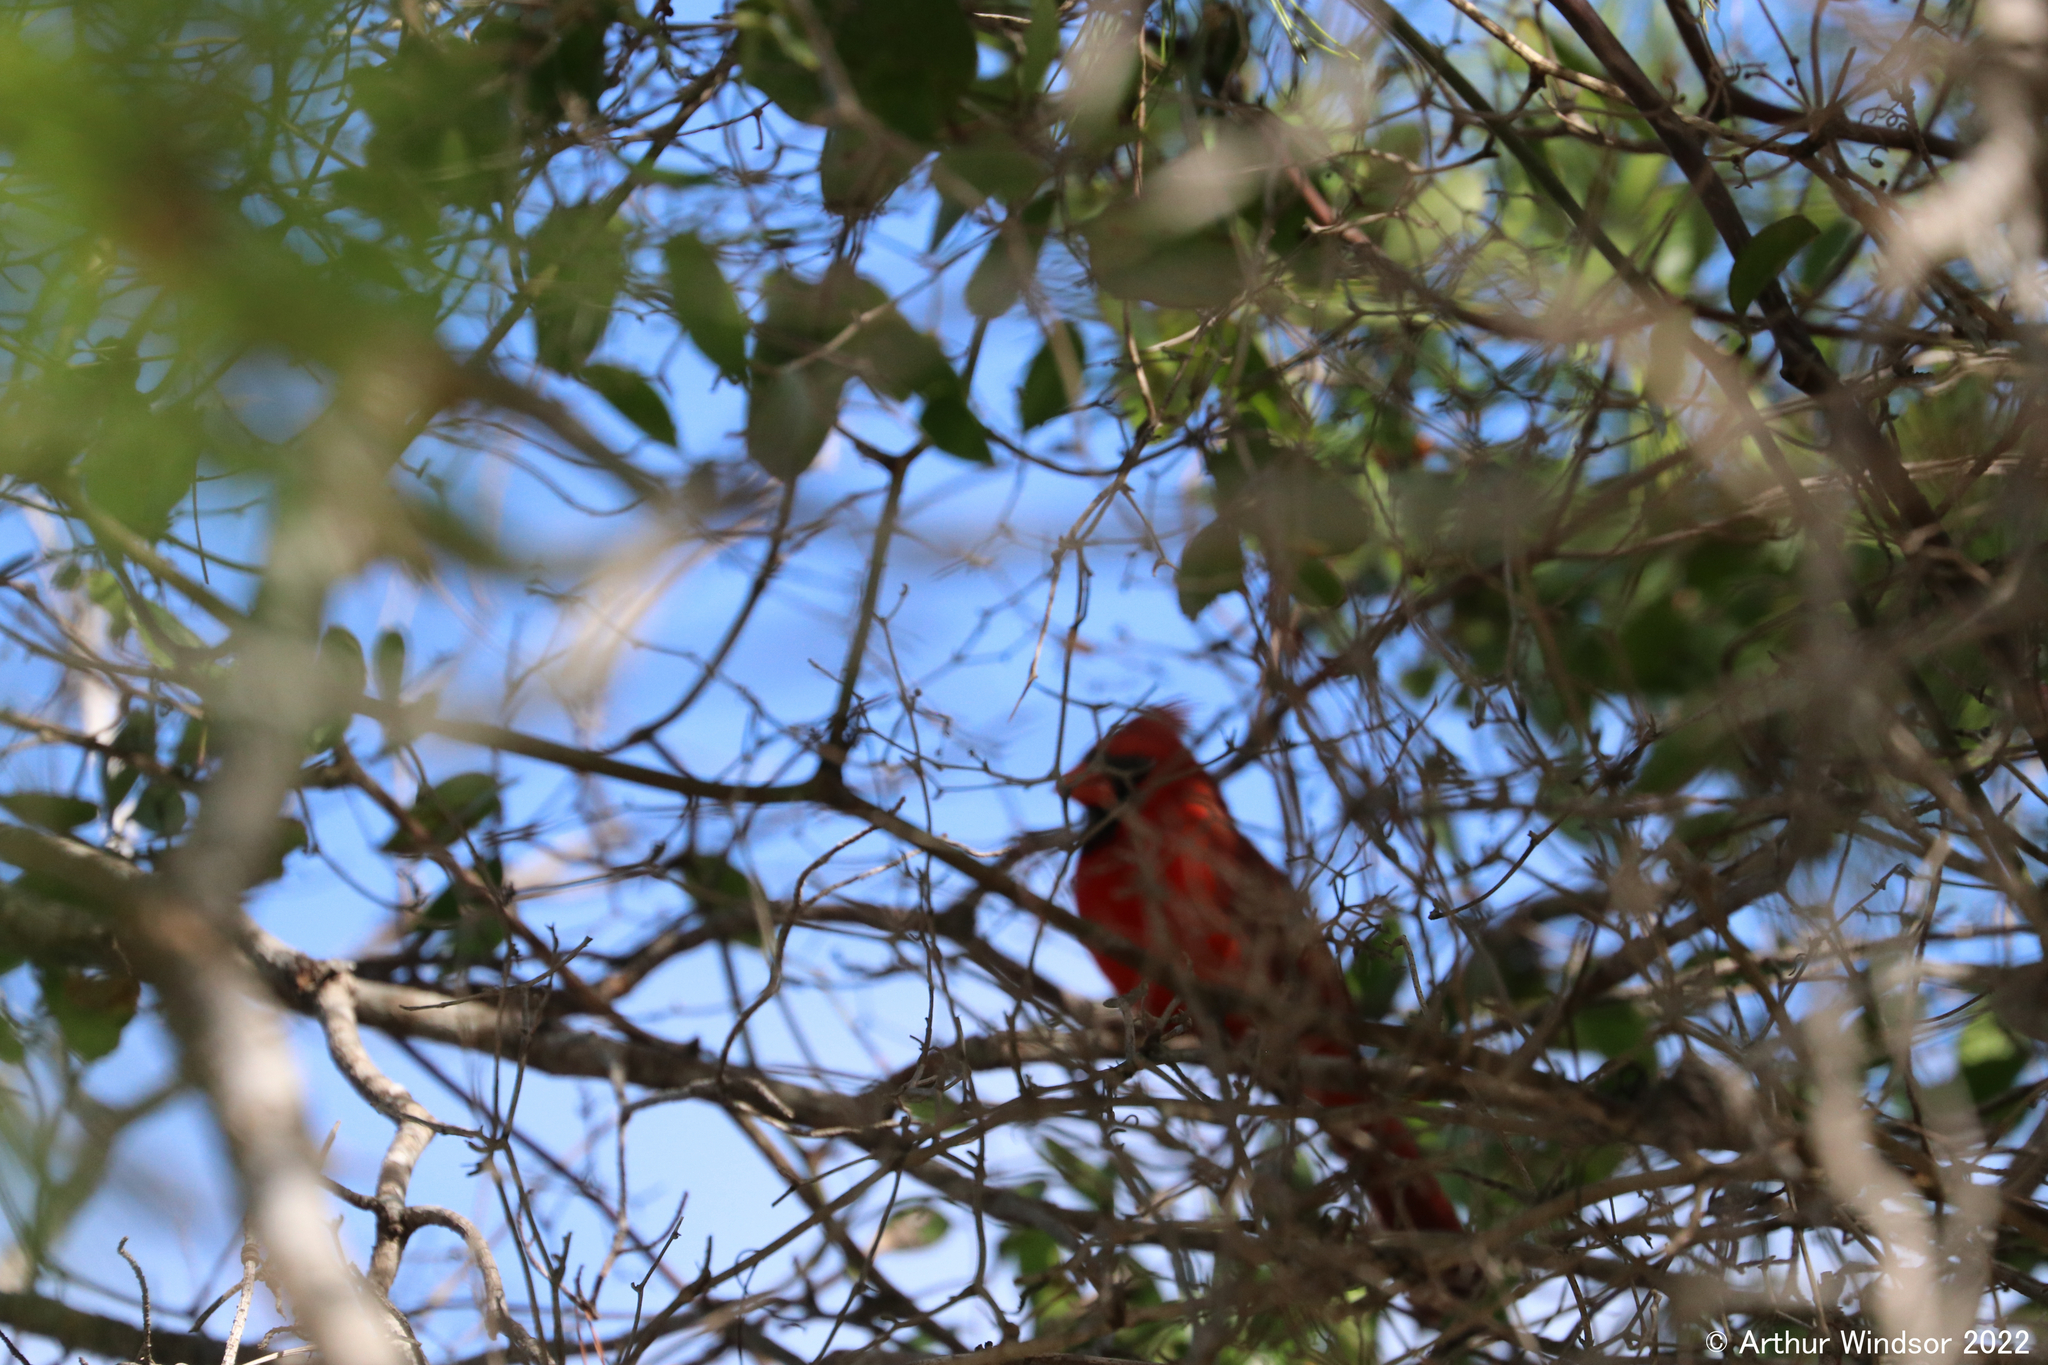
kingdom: Animalia
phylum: Chordata
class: Aves
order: Passeriformes
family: Cardinalidae
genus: Cardinalis
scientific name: Cardinalis cardinalis
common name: Northern cardinal
